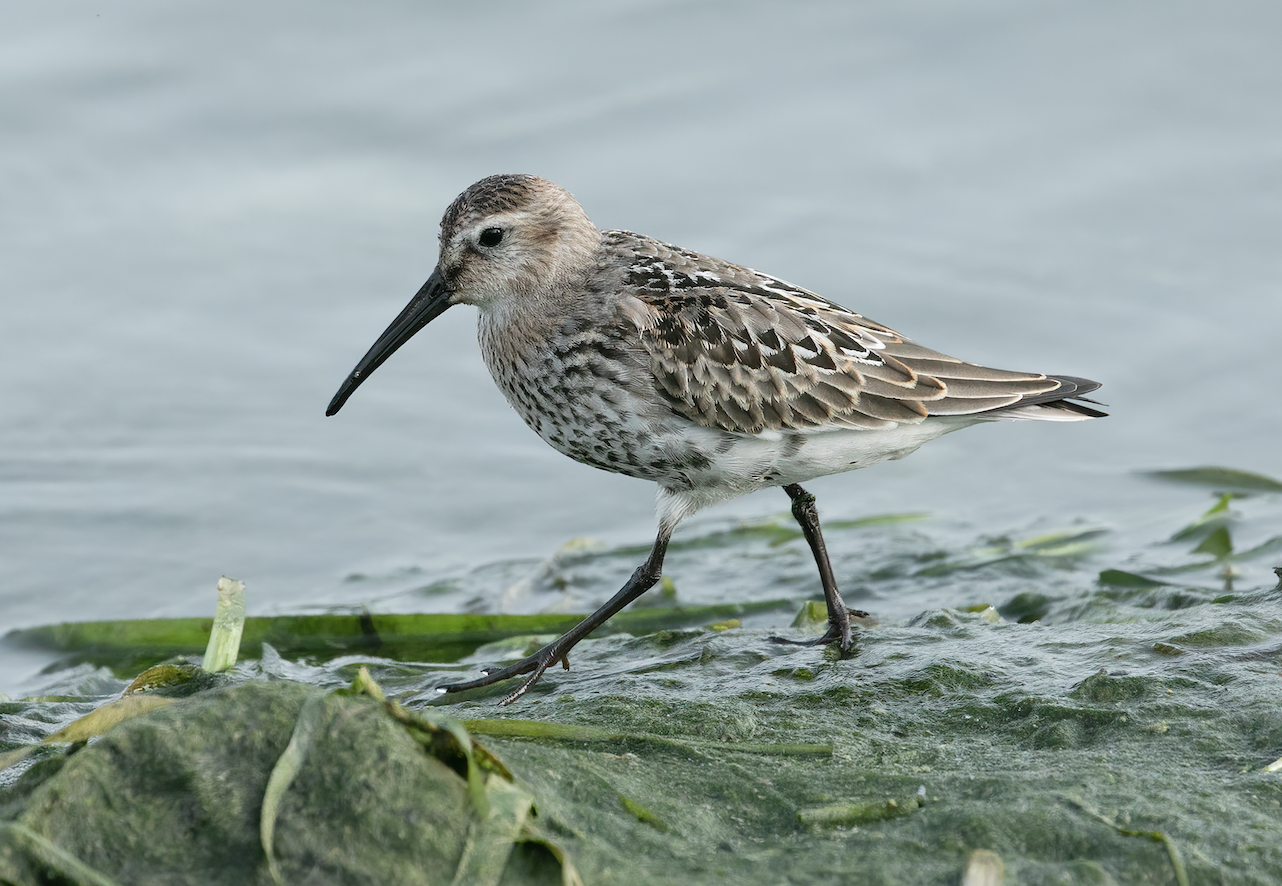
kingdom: Animalia
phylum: Chordata
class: Aves
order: Charadriiformes
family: Scolopacidae
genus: Calidris
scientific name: Calidris alpina
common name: Dunlin
